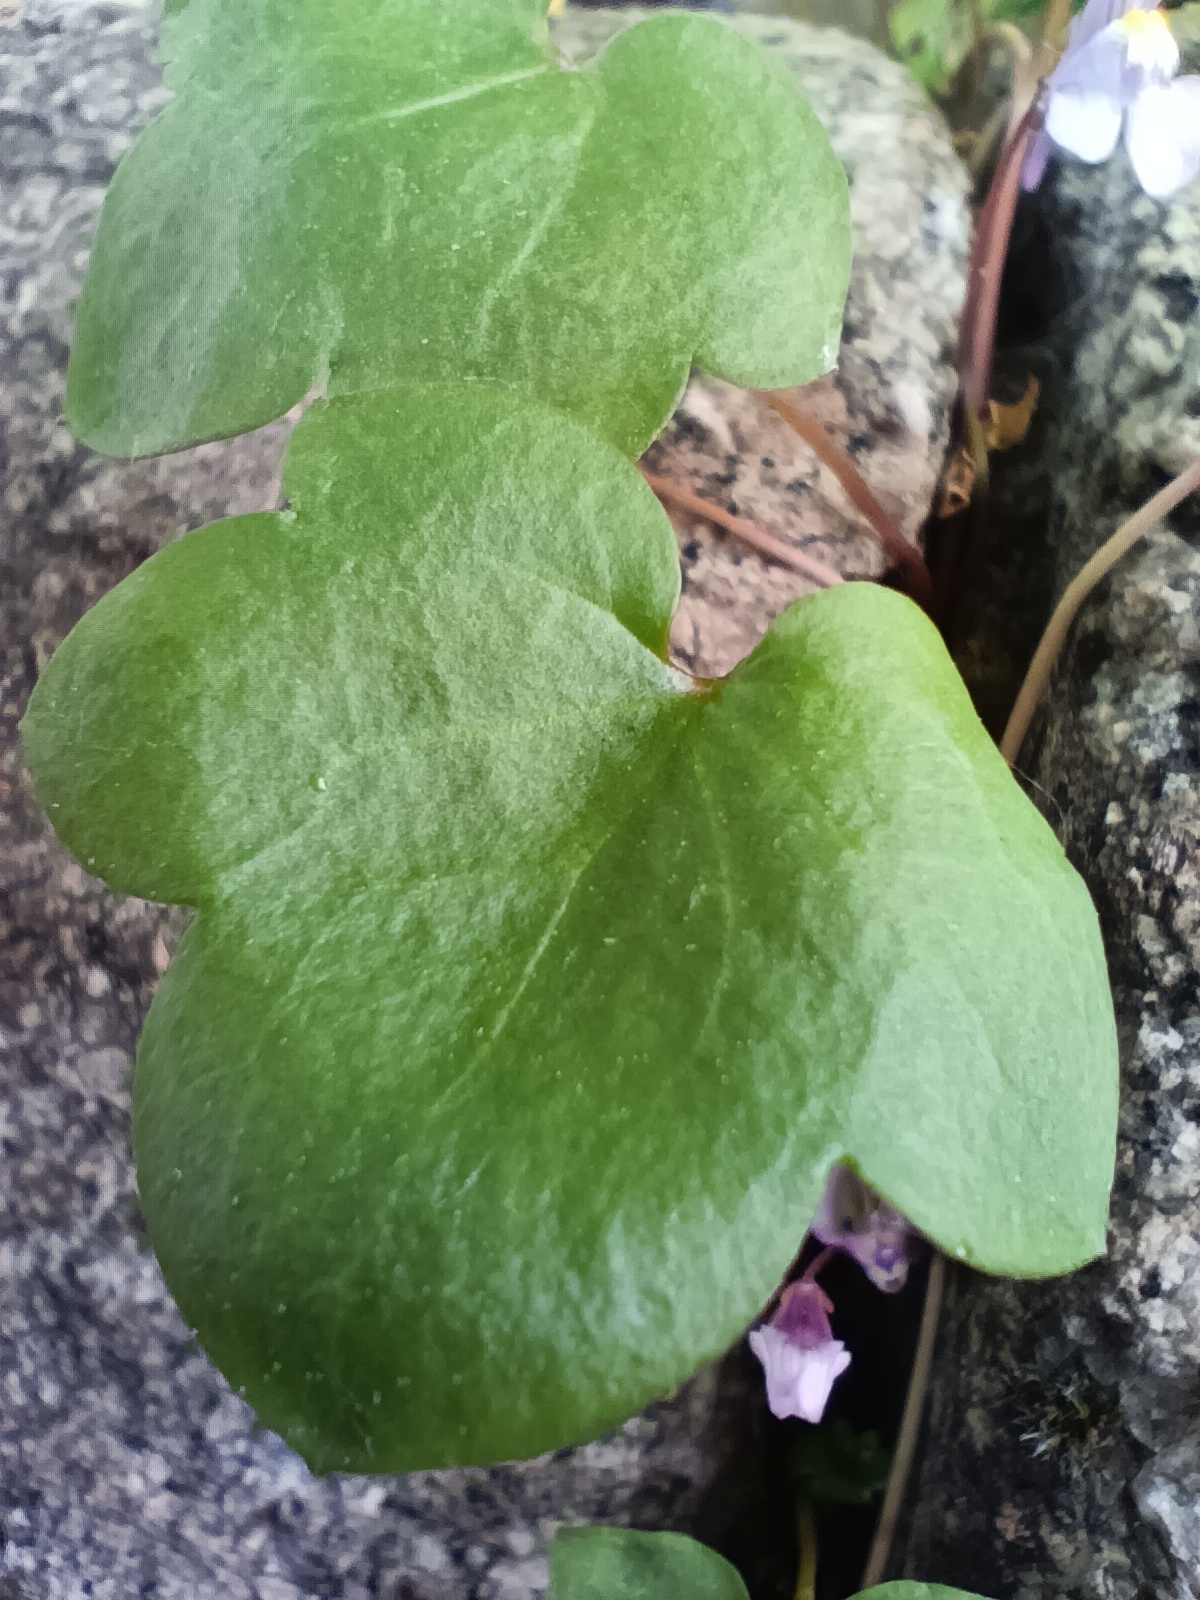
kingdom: Plantae
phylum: Tracheophyta
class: Magnoliopsida
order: Lamiales
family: Plantaginaceae
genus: Cymbalaria
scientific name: Cymbalaria muralis
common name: Ivy-leaved toadflax
